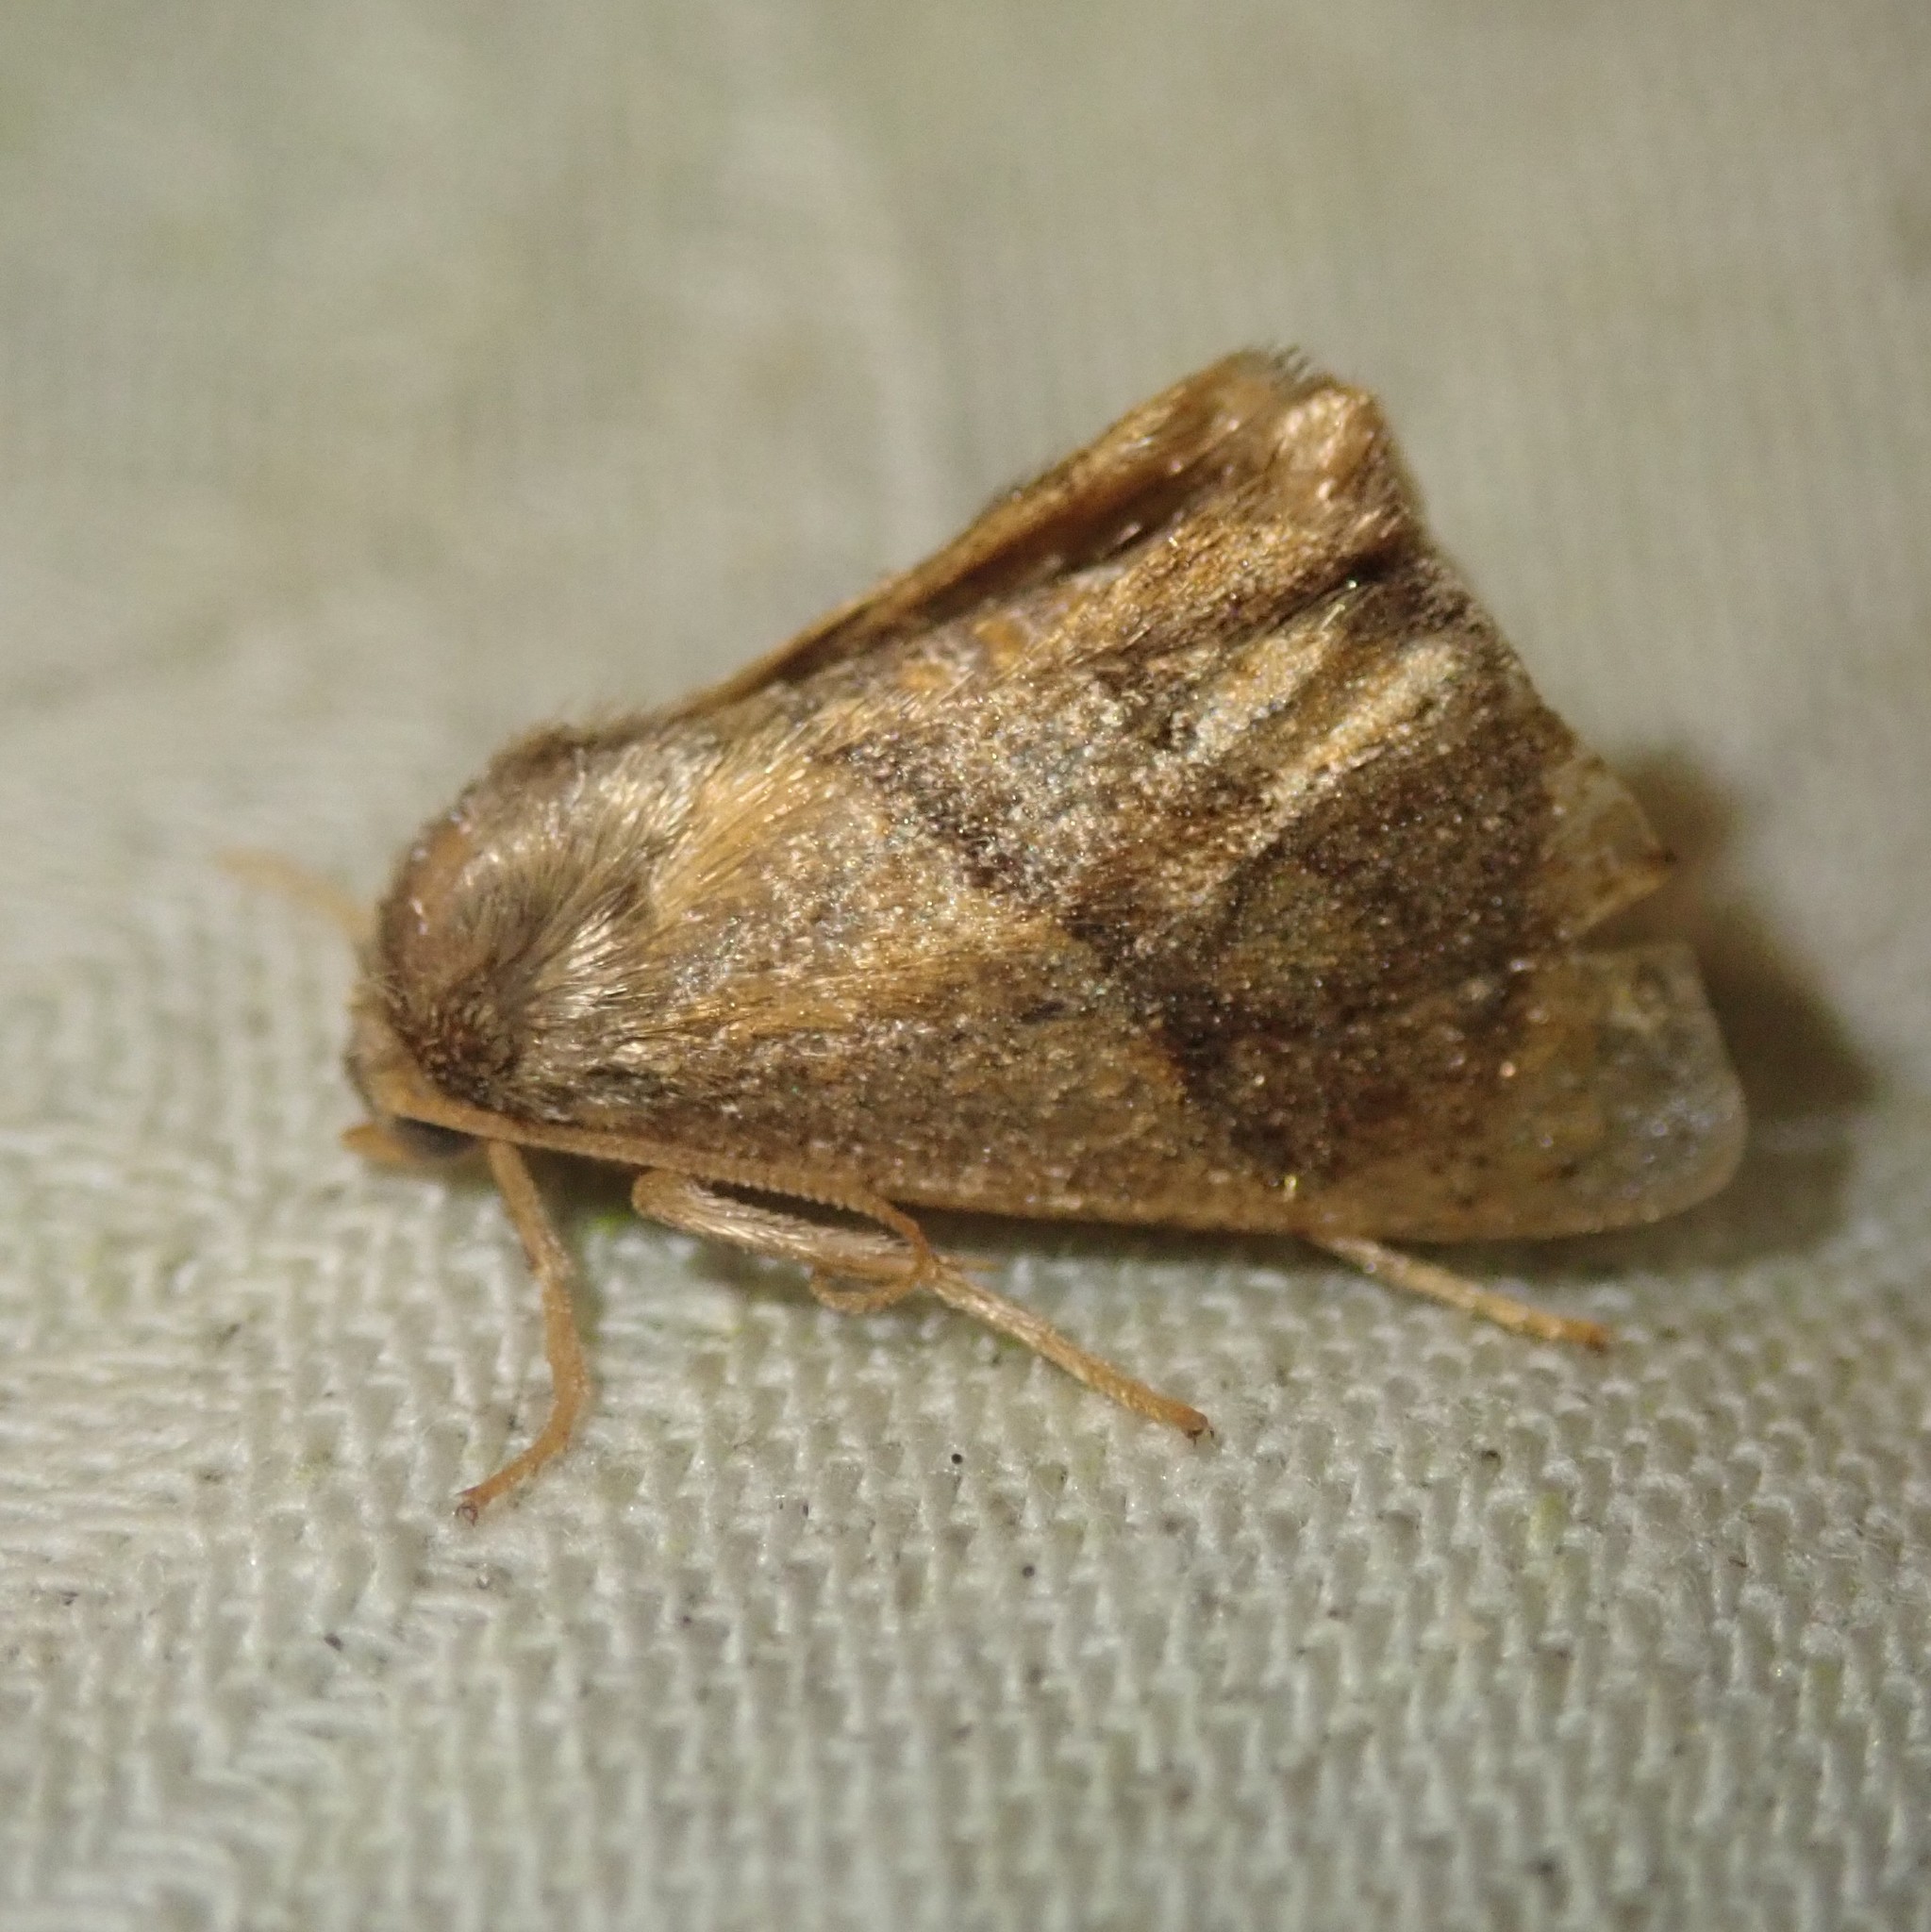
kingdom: Animalia
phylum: Arthropoda
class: Insecta
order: Lepidoptera
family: Limacodidae
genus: Apoda
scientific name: Apoda limacodes
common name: Festoon
